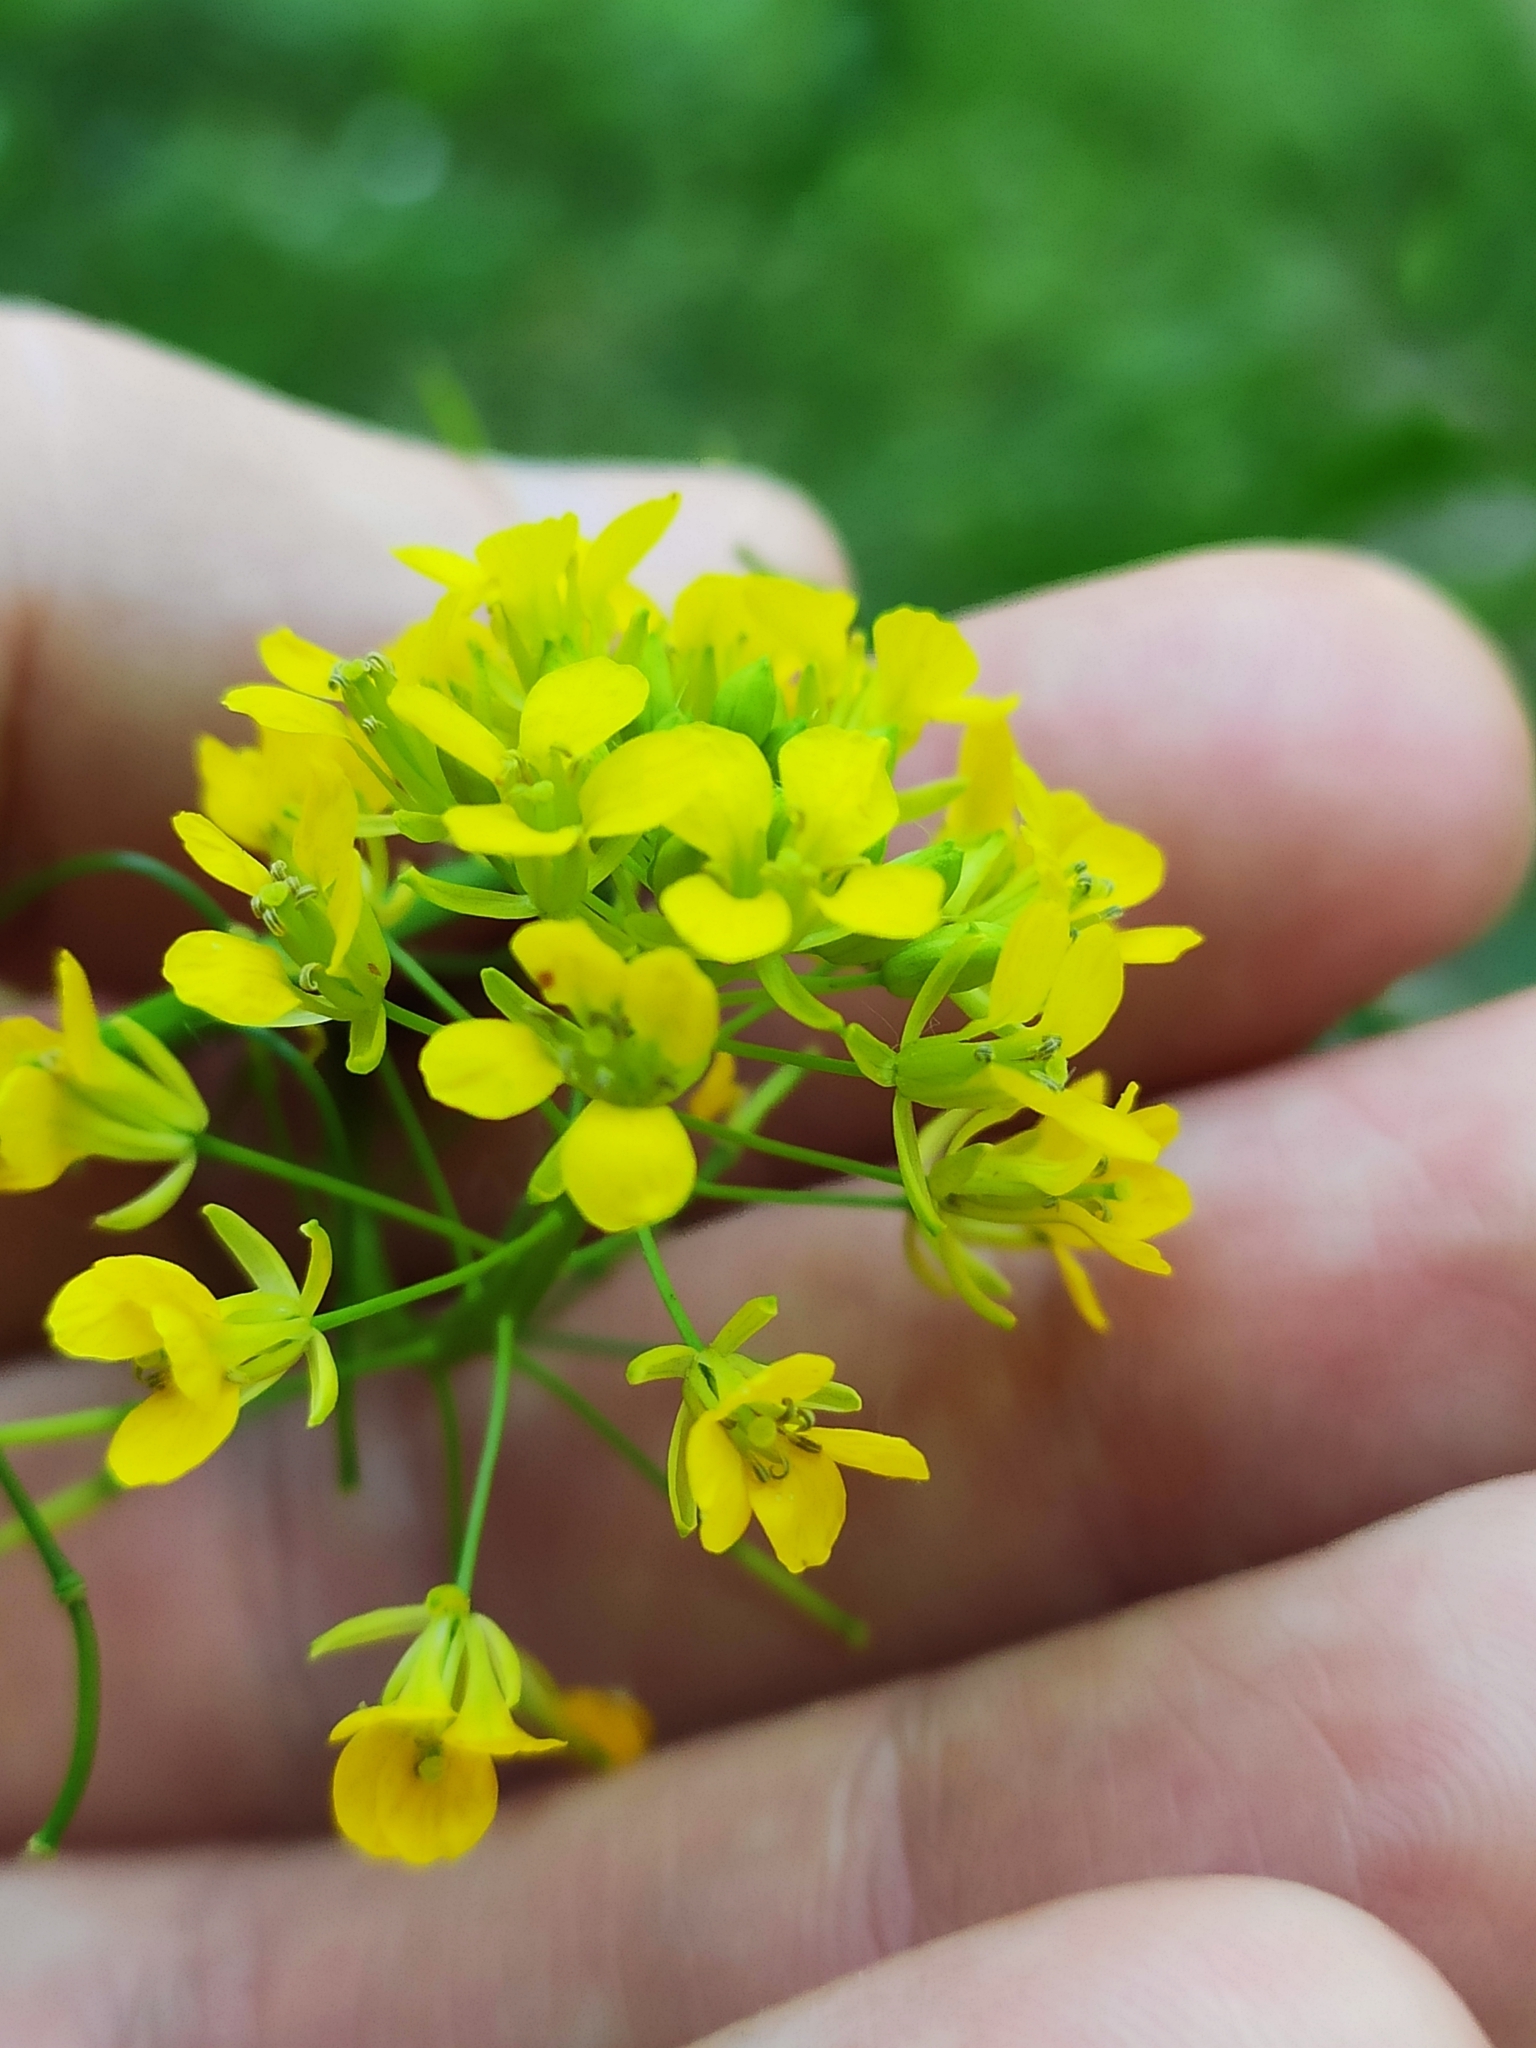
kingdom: Plantae
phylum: Tracheophyta
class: Magnoliopsida
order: Brassicales
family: Brassicaceae
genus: Sisymbrium
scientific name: Sisymbrium loeselii
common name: False london-rocket
